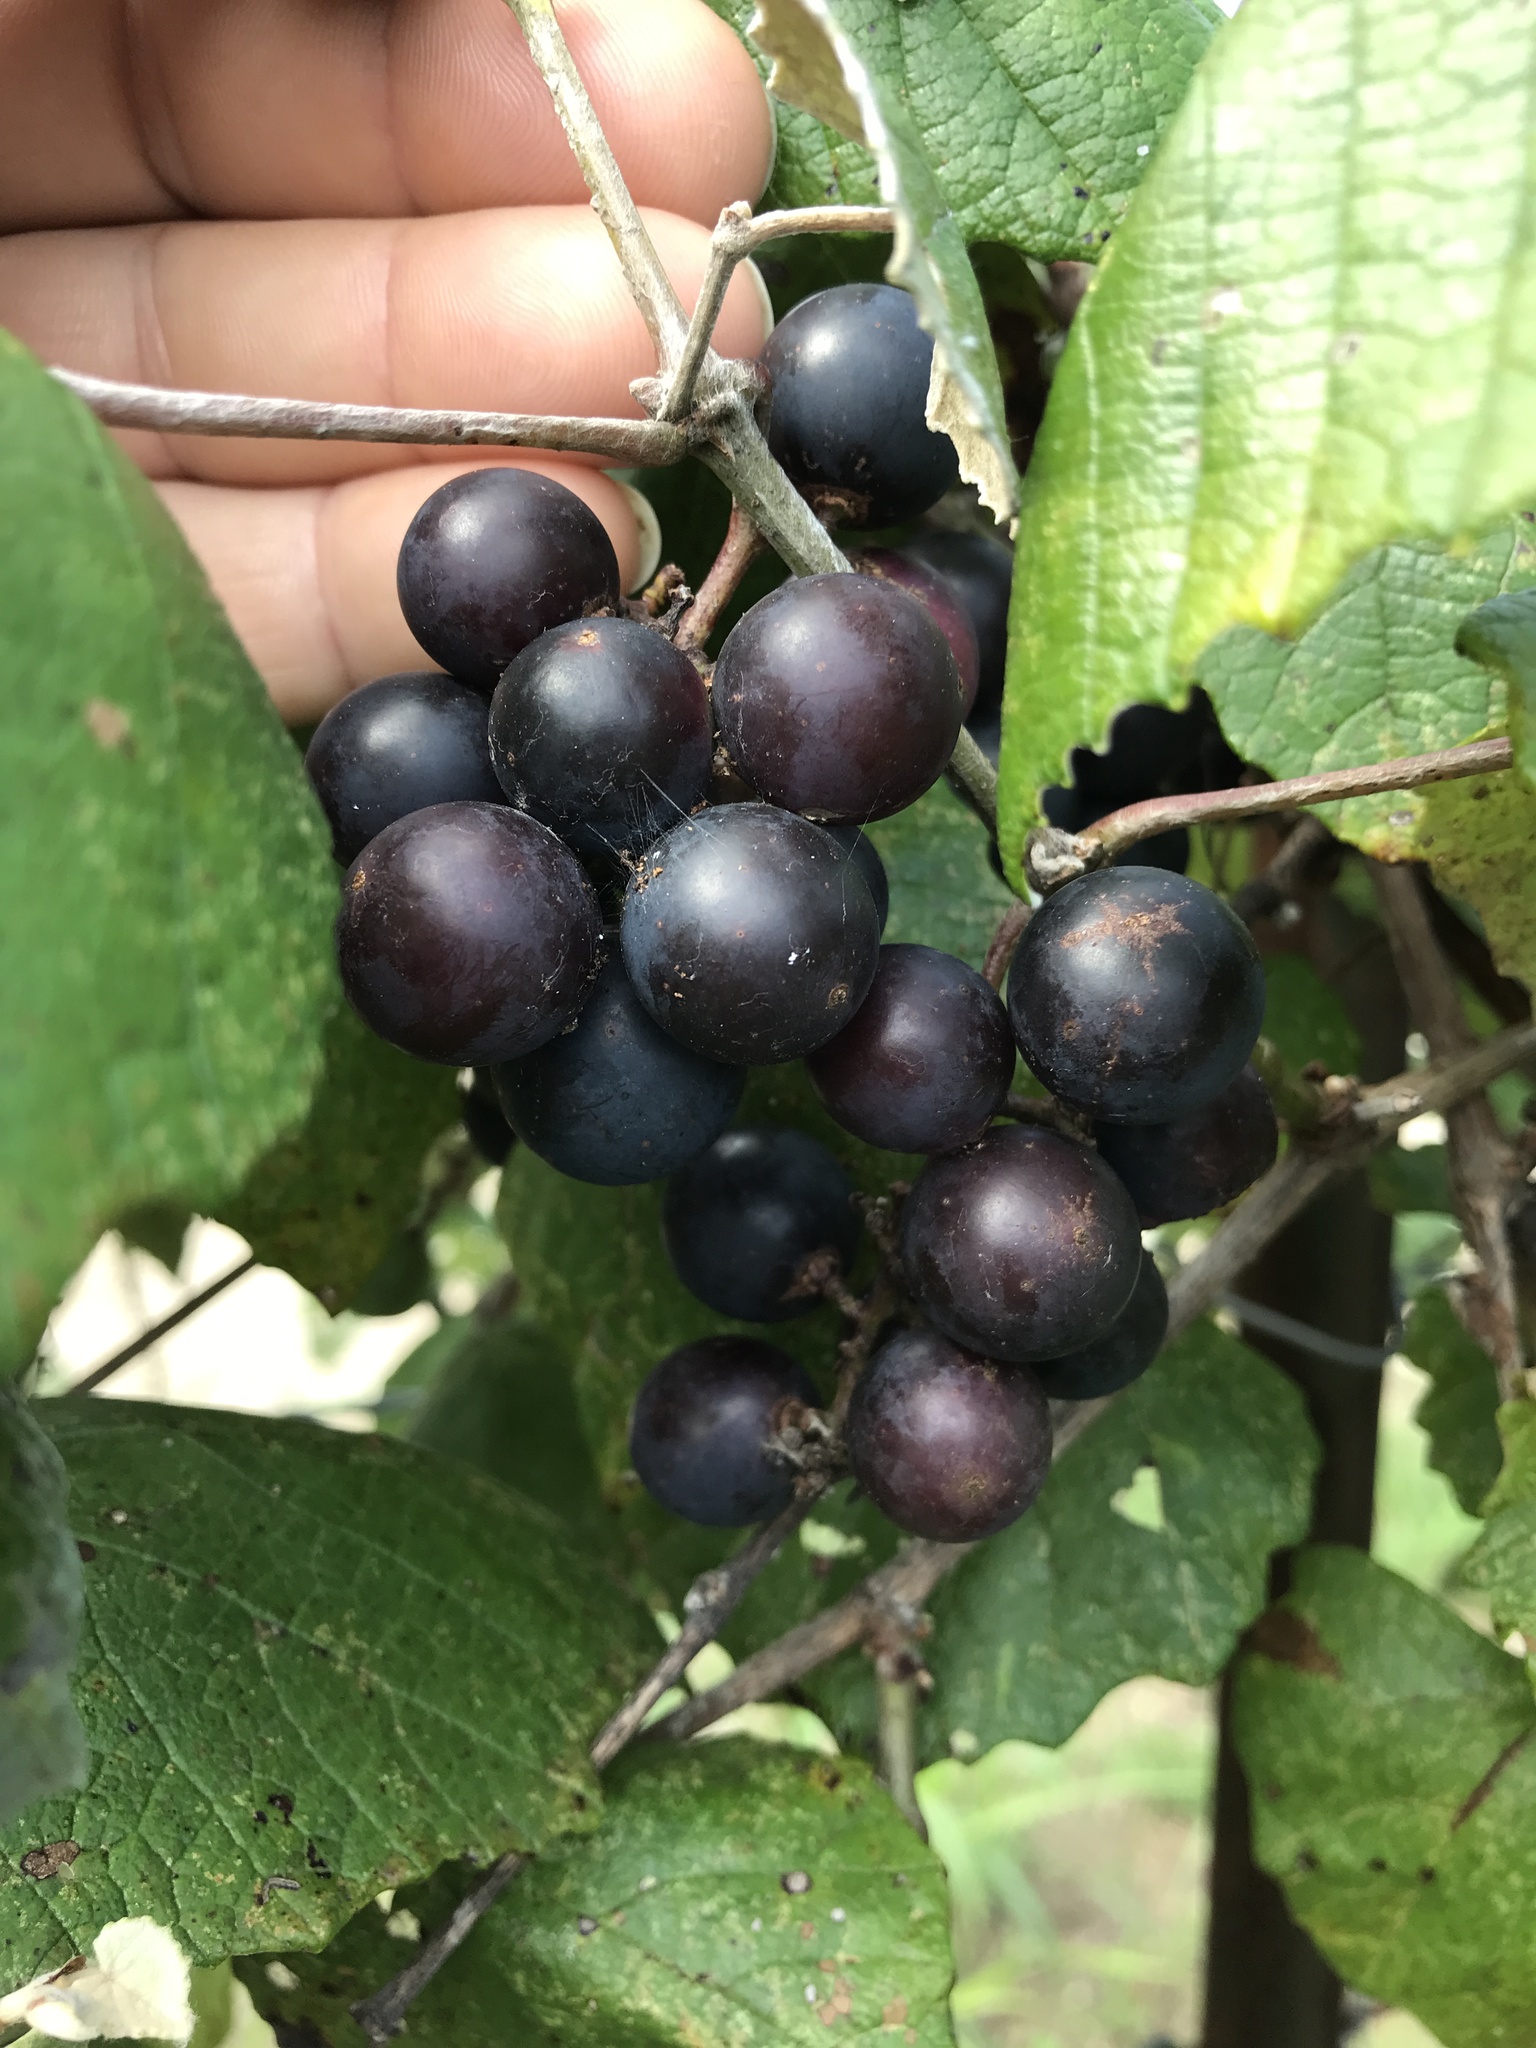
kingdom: Plantae
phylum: Tracheophyta
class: Magnoliopsida
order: Vitales
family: Vitaceae
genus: Vitis
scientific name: Vitis mustangensis
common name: Mustang grape
